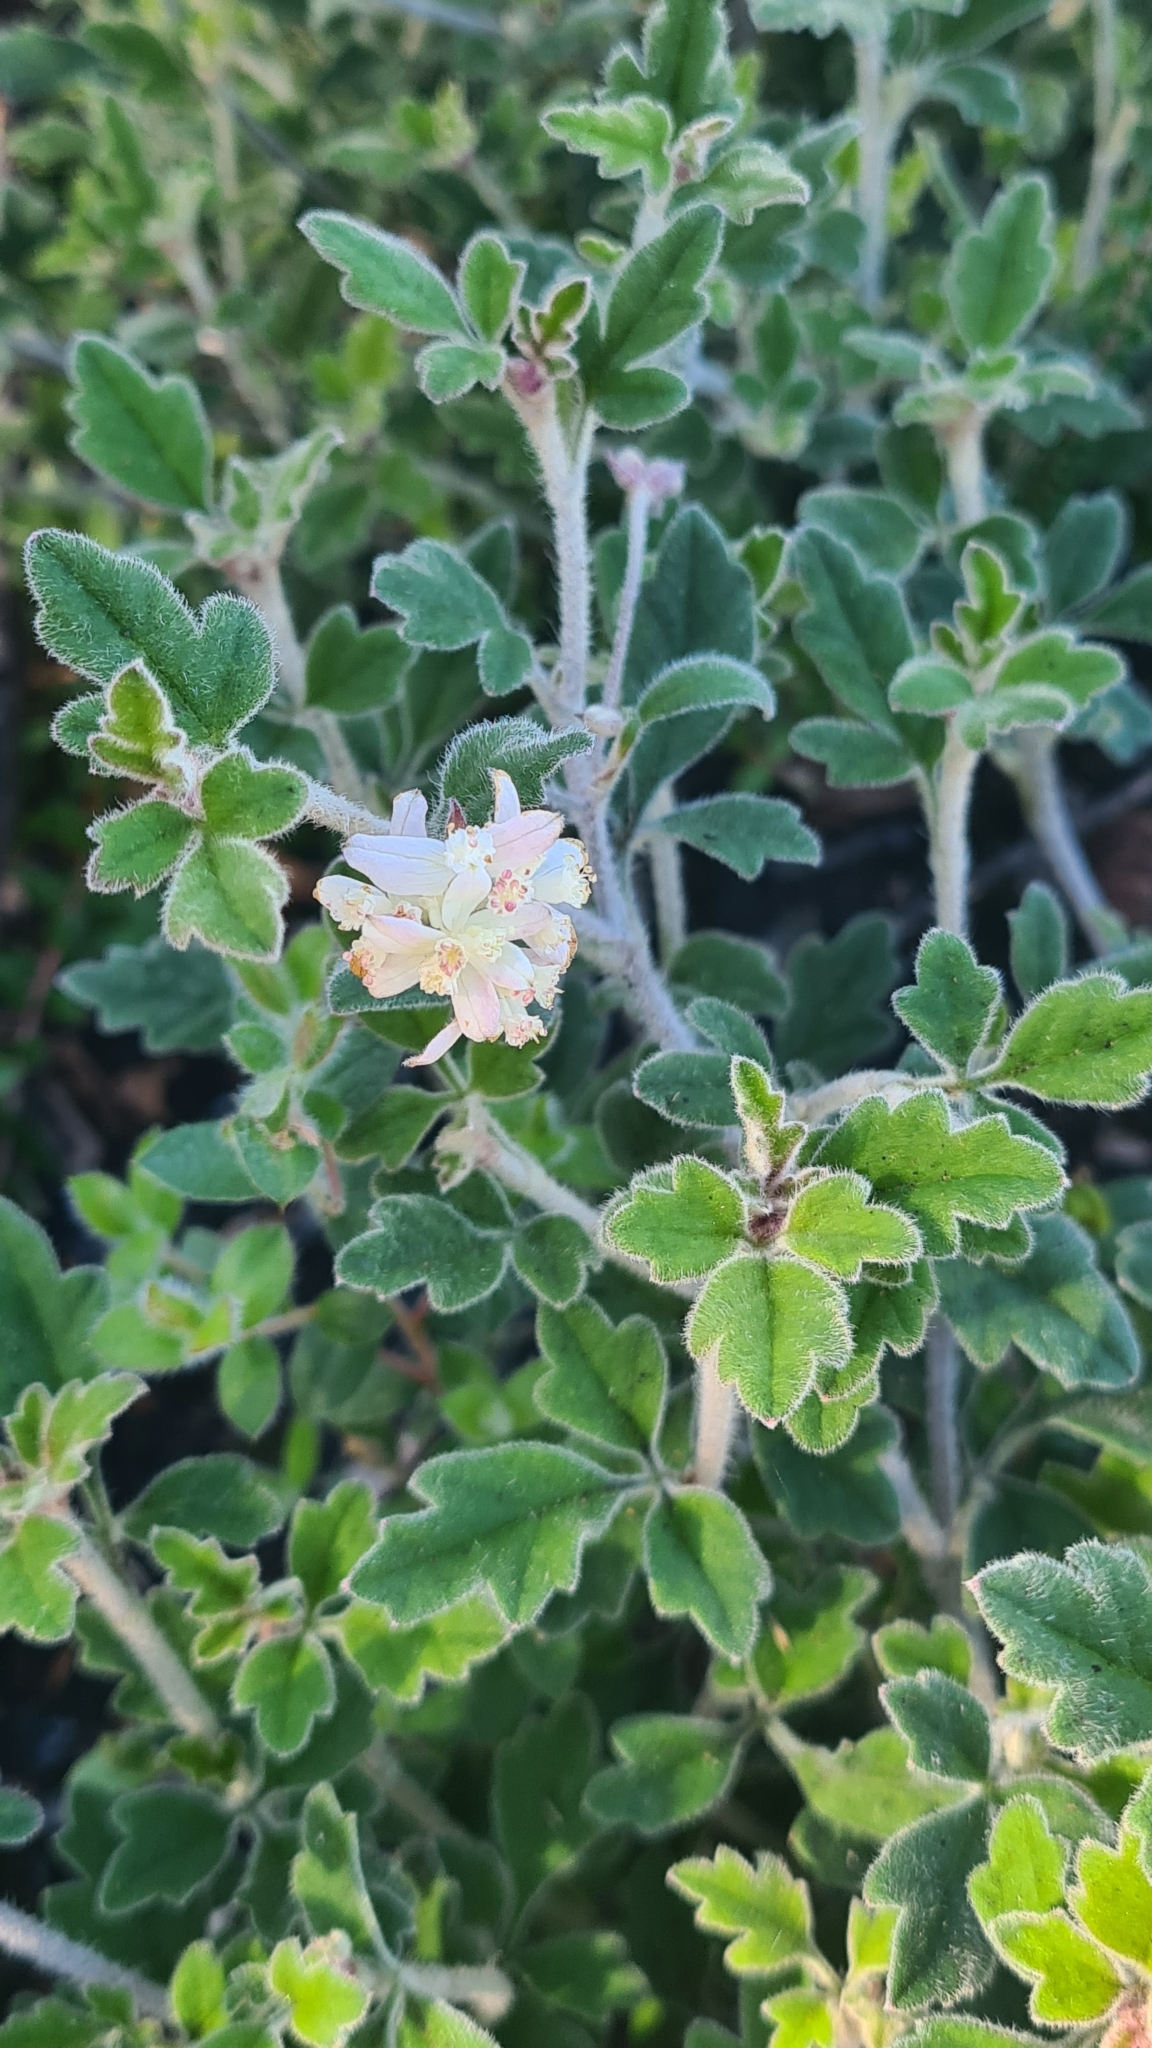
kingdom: Plantae
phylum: Tracheophyta
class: Magnoliopsida
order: Apiales
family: Apiaceae
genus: Xanthosia
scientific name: Xanthosia pilosa
